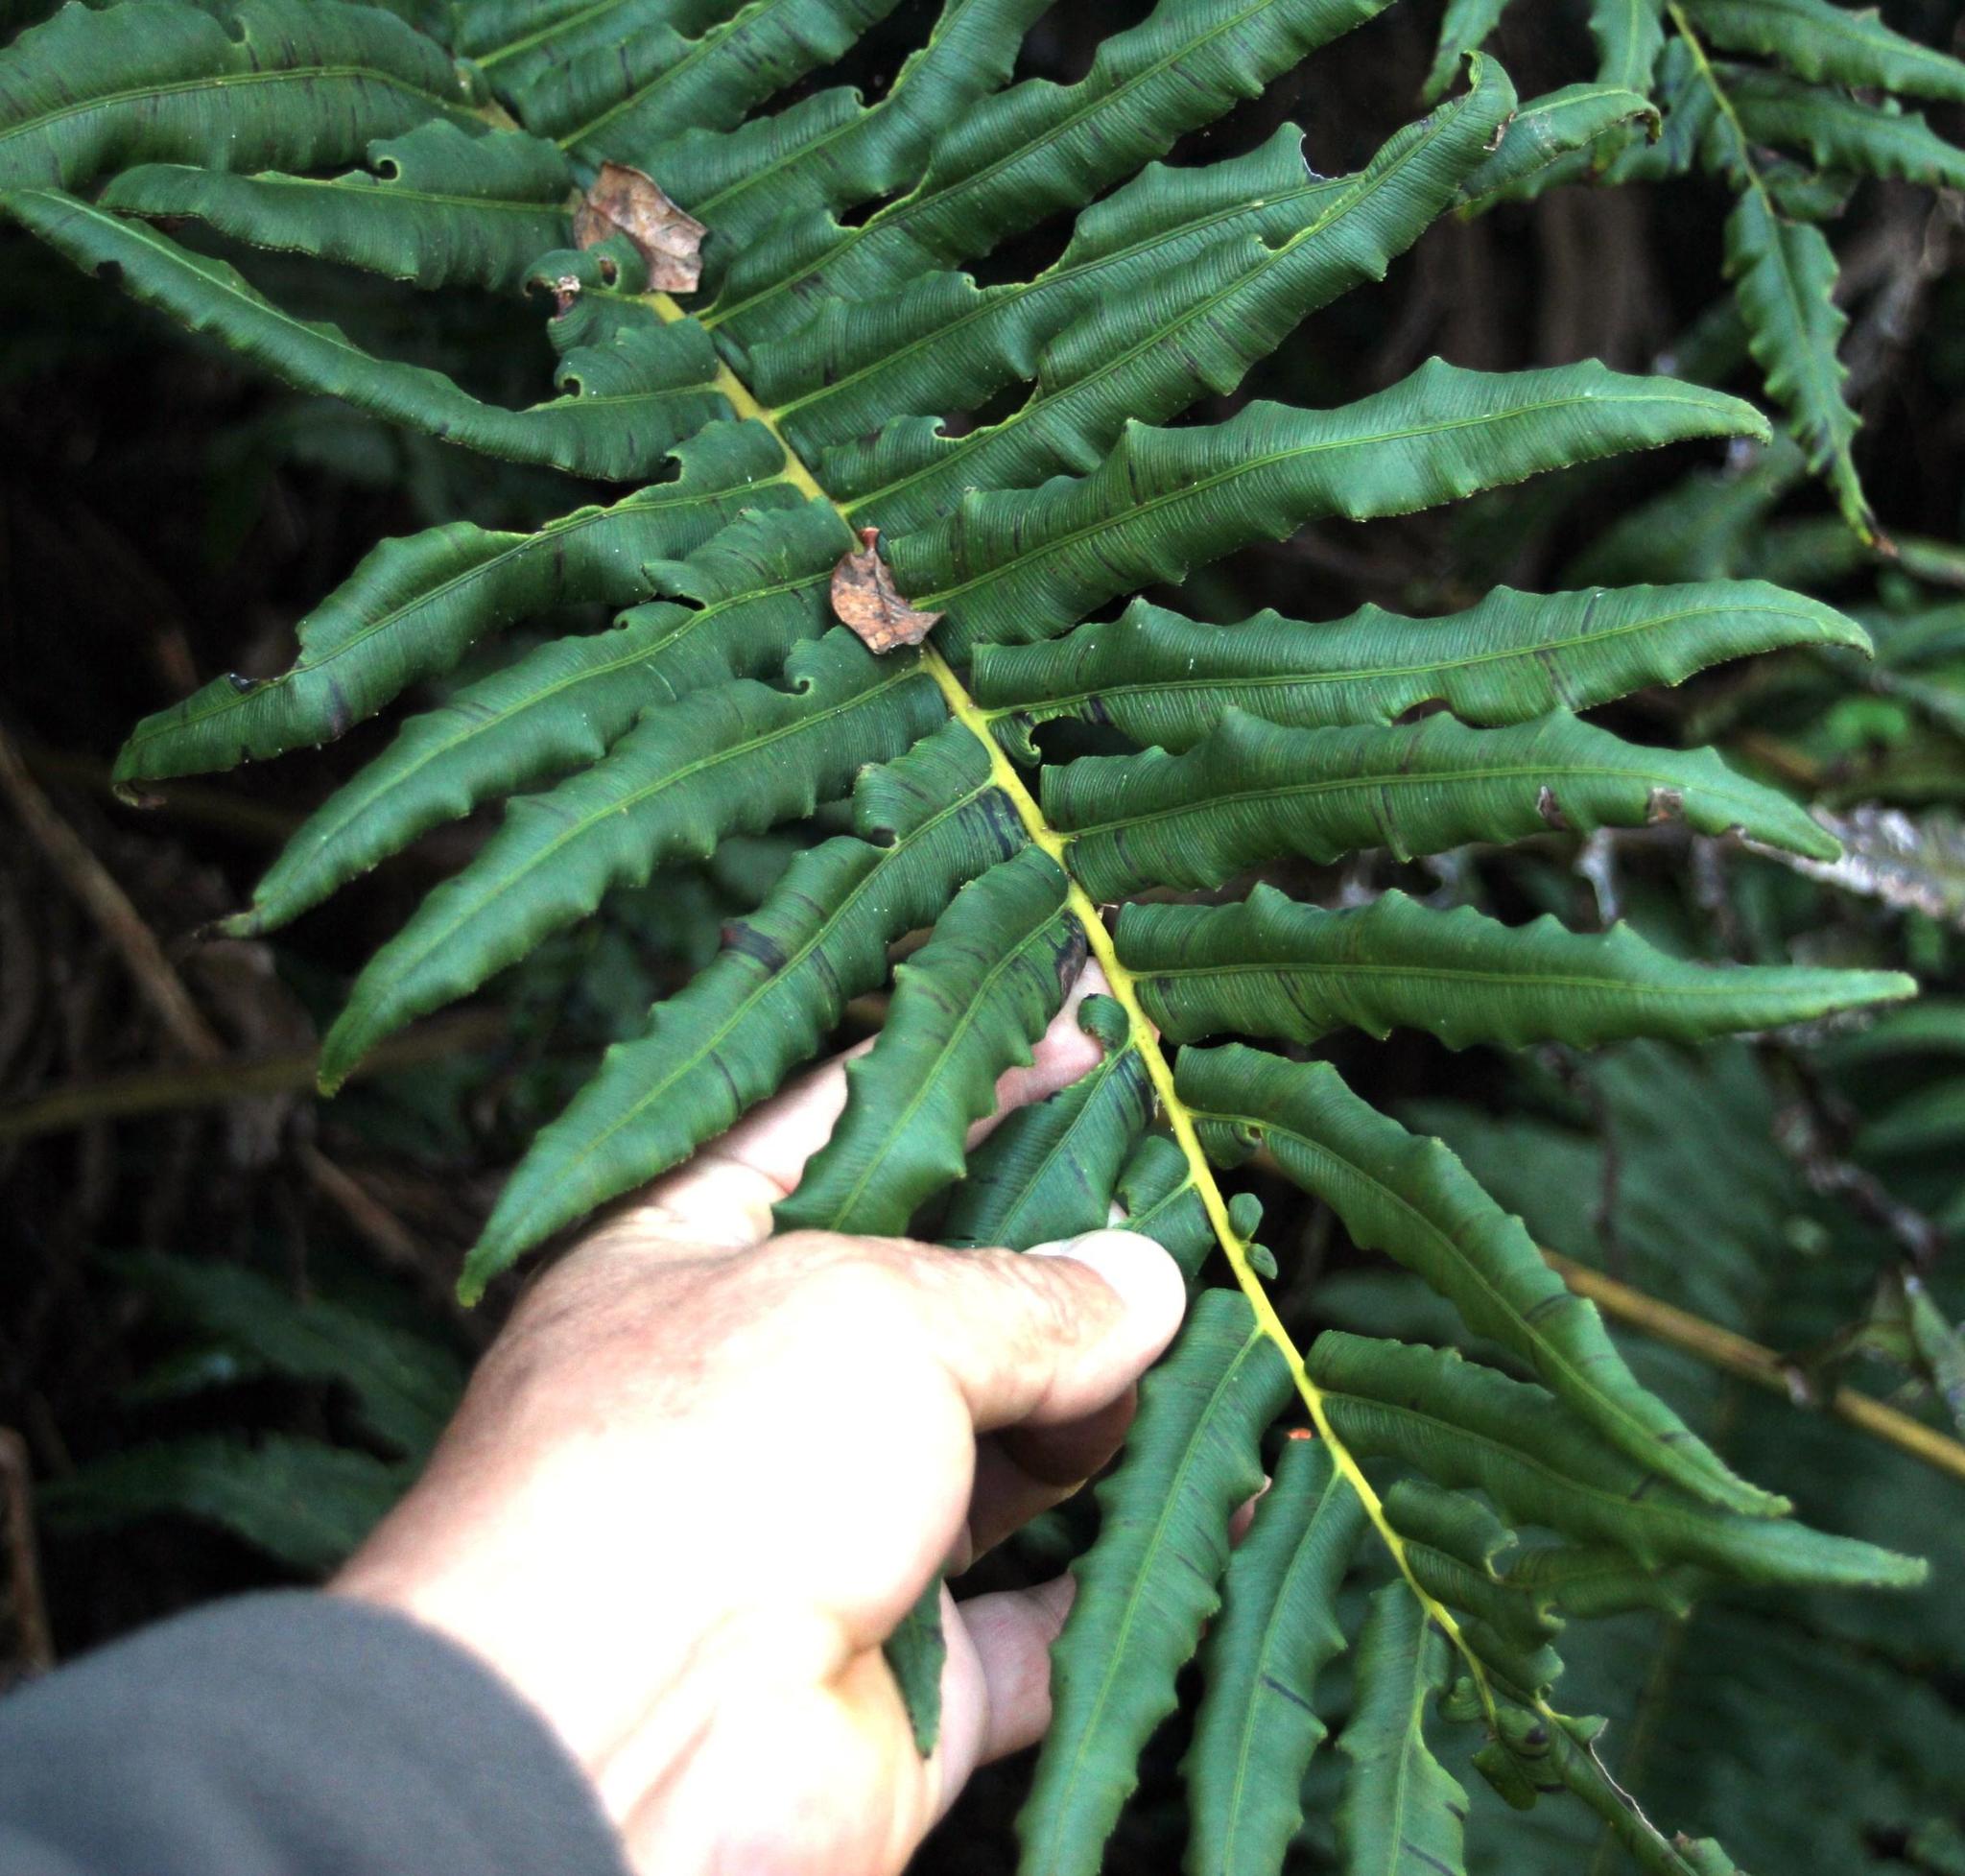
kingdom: Plantae
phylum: Tracheophyta
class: Polypodiopsida
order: Polypodiales
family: Blechnaceae
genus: Parablechnum
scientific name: Parablechnum chilense
